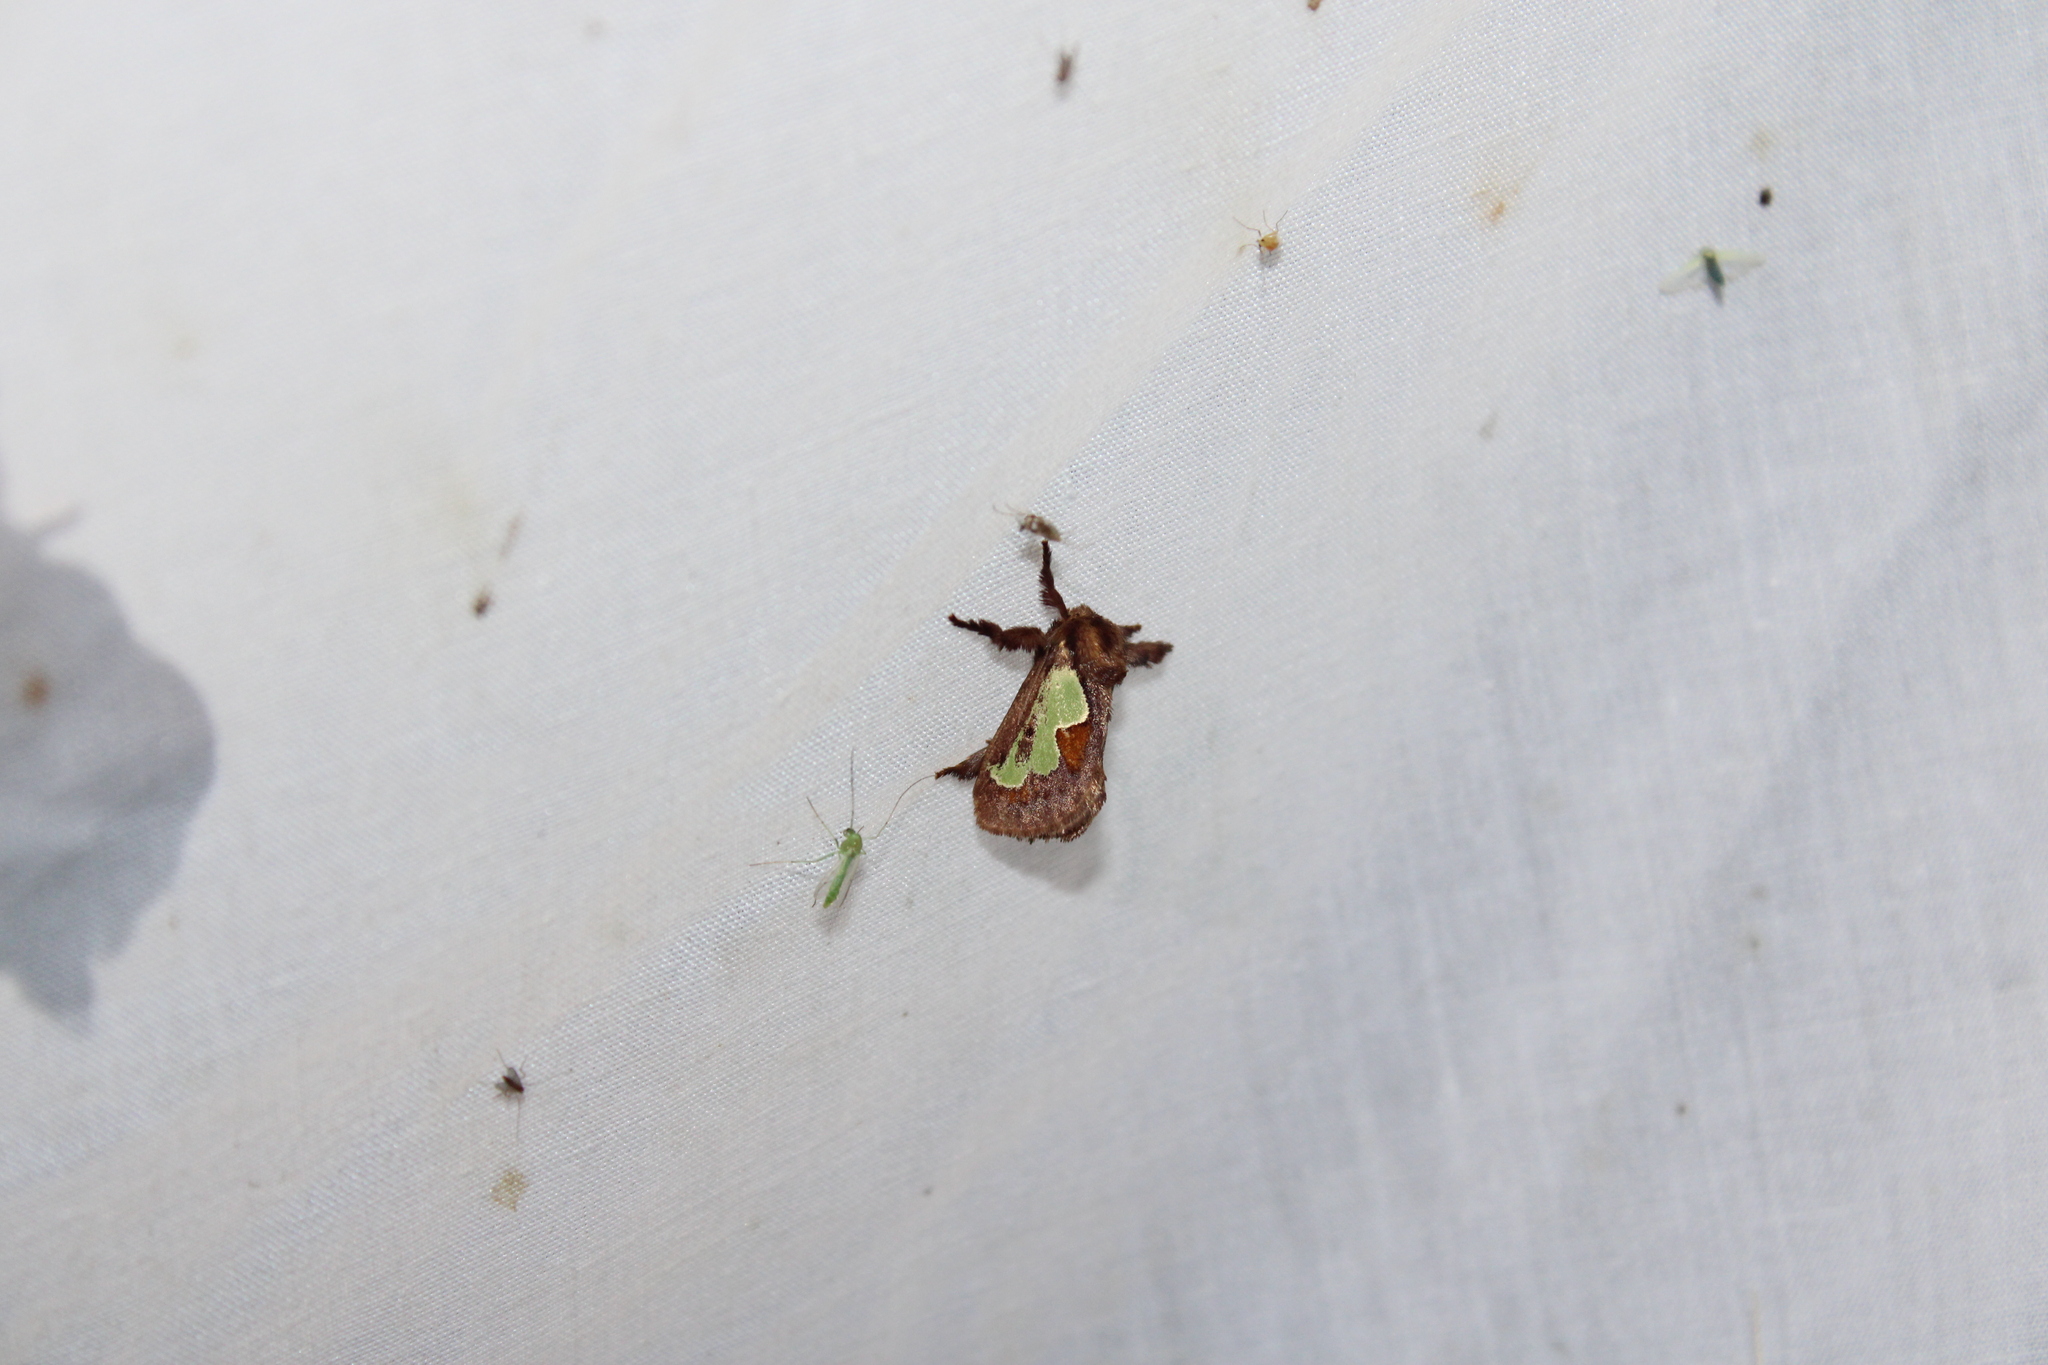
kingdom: Animalia
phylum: Arthropoda
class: Insecta
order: Lepidoptera
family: Limacodidae
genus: Euclea
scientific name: Euclea delphinii
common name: Spiny oak-slug moth
